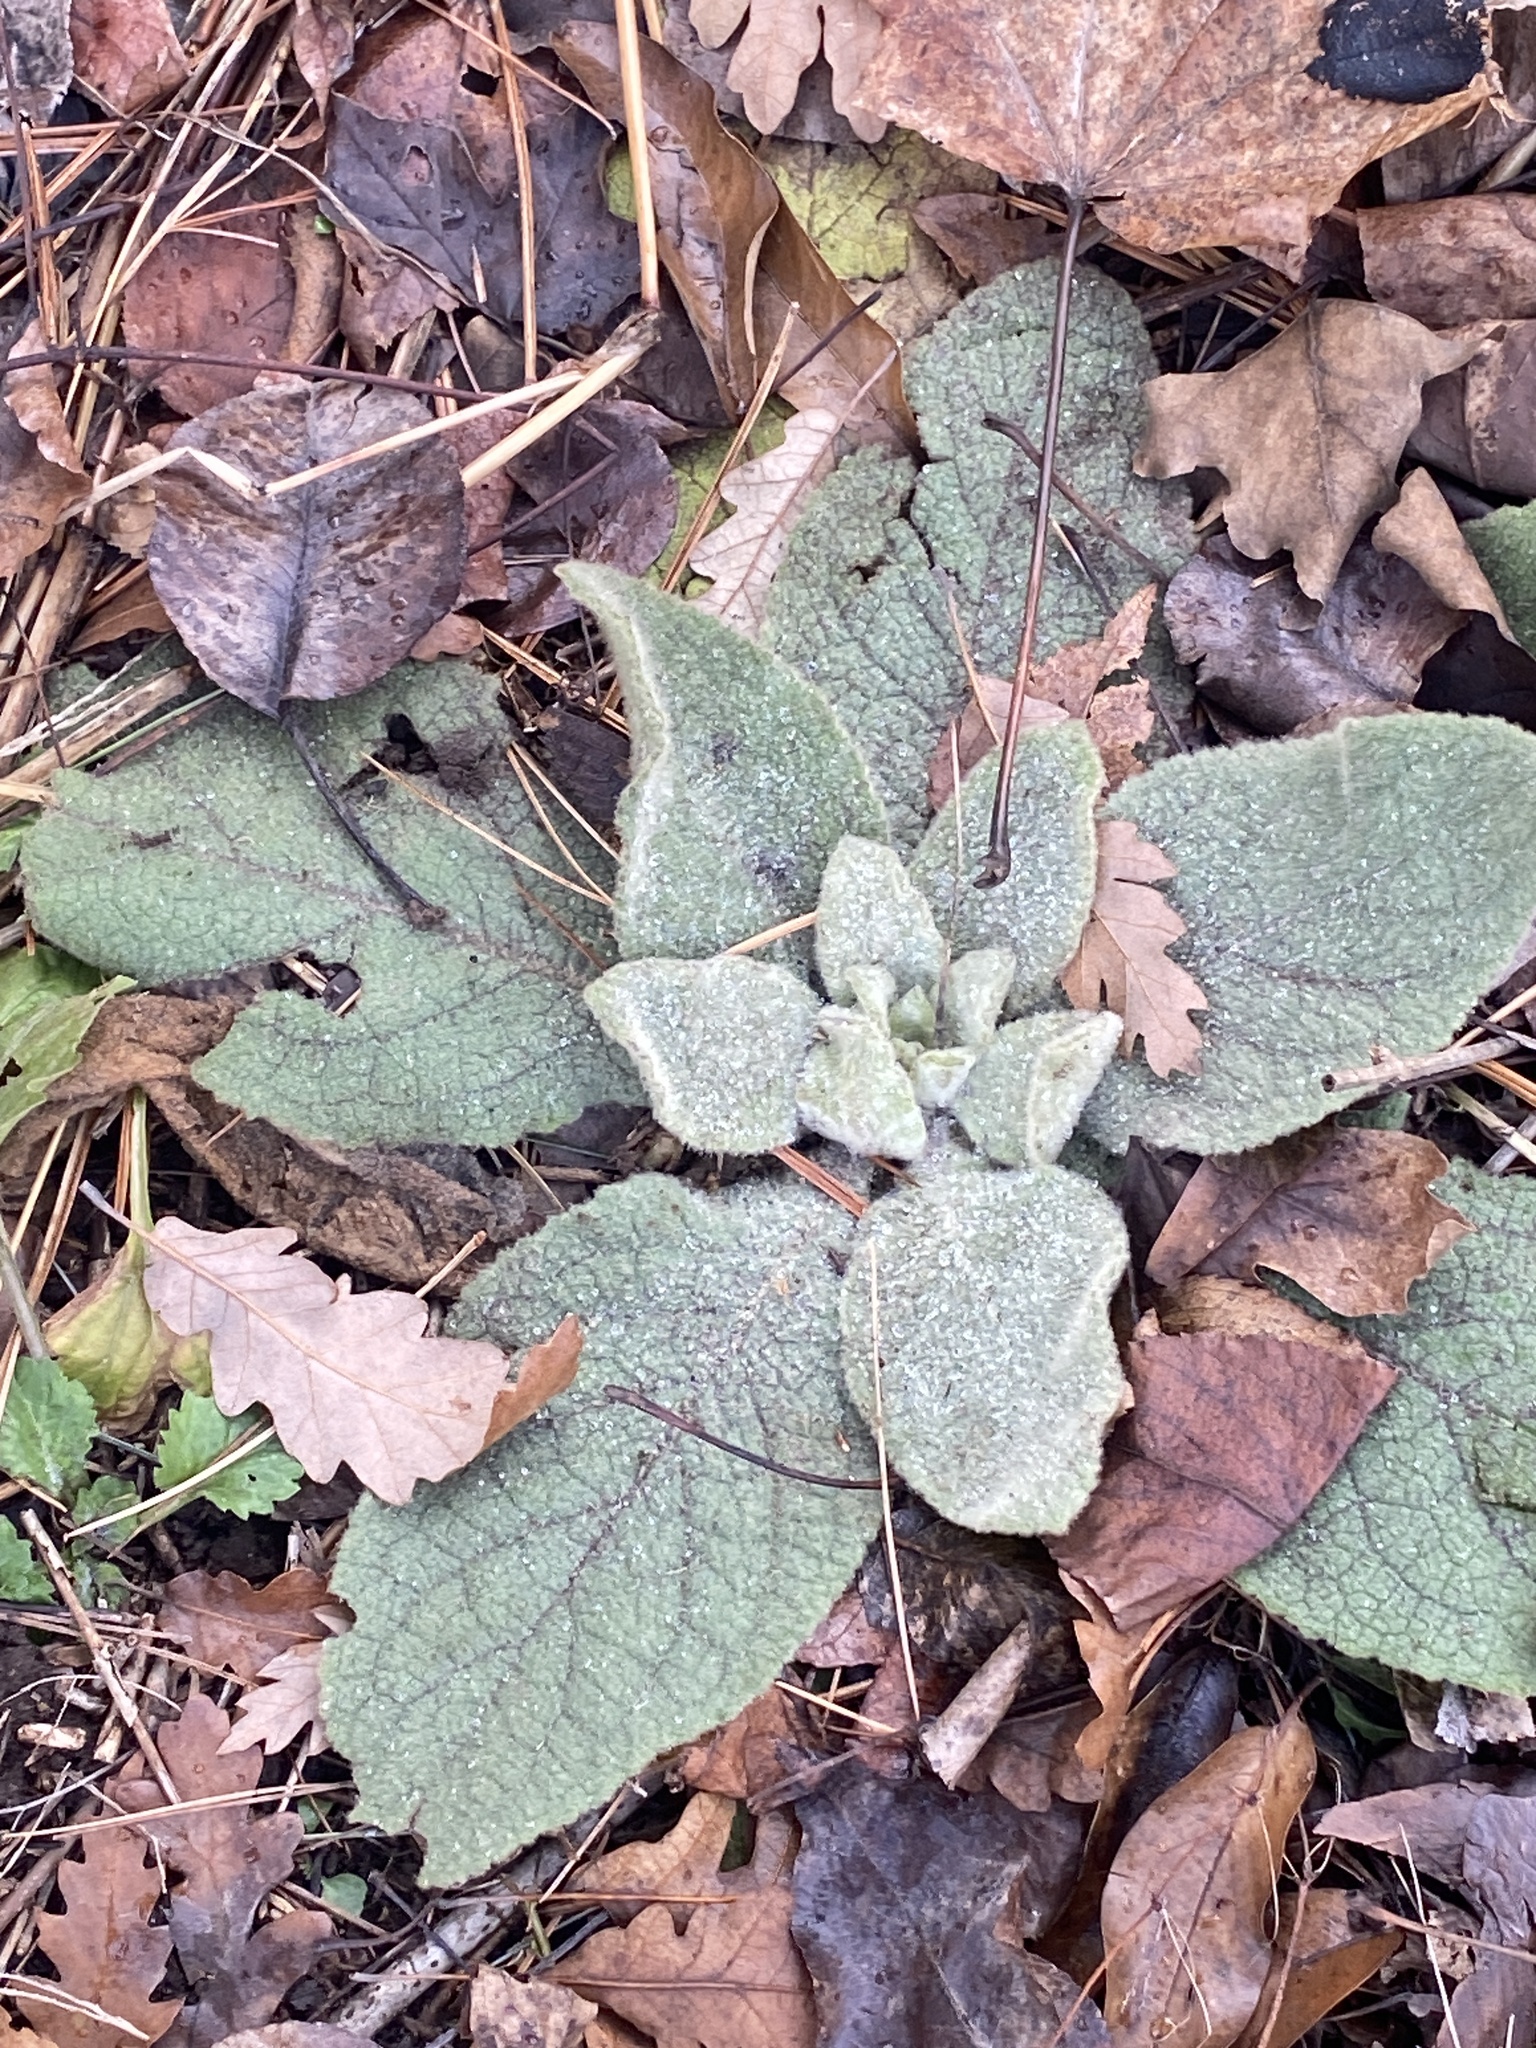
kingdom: Plantae
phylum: Tracheophyta
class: Magnoliopsida
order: Lamiales
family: Scrophulariaceae
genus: Verbascum
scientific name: Verbascum thapsus
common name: Common mullein
